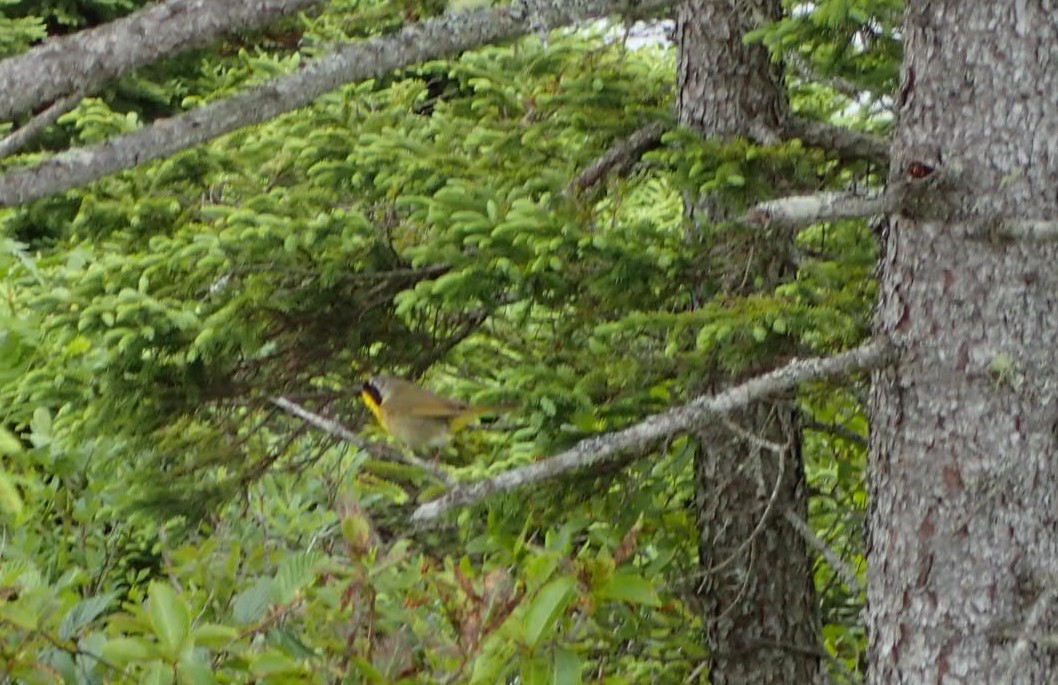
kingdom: Animalia
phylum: Chordata
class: Aves
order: Passeriformes
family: Parulidae
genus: Geothlypis
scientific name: Geothlypis trichas
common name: Common yellowthroat
